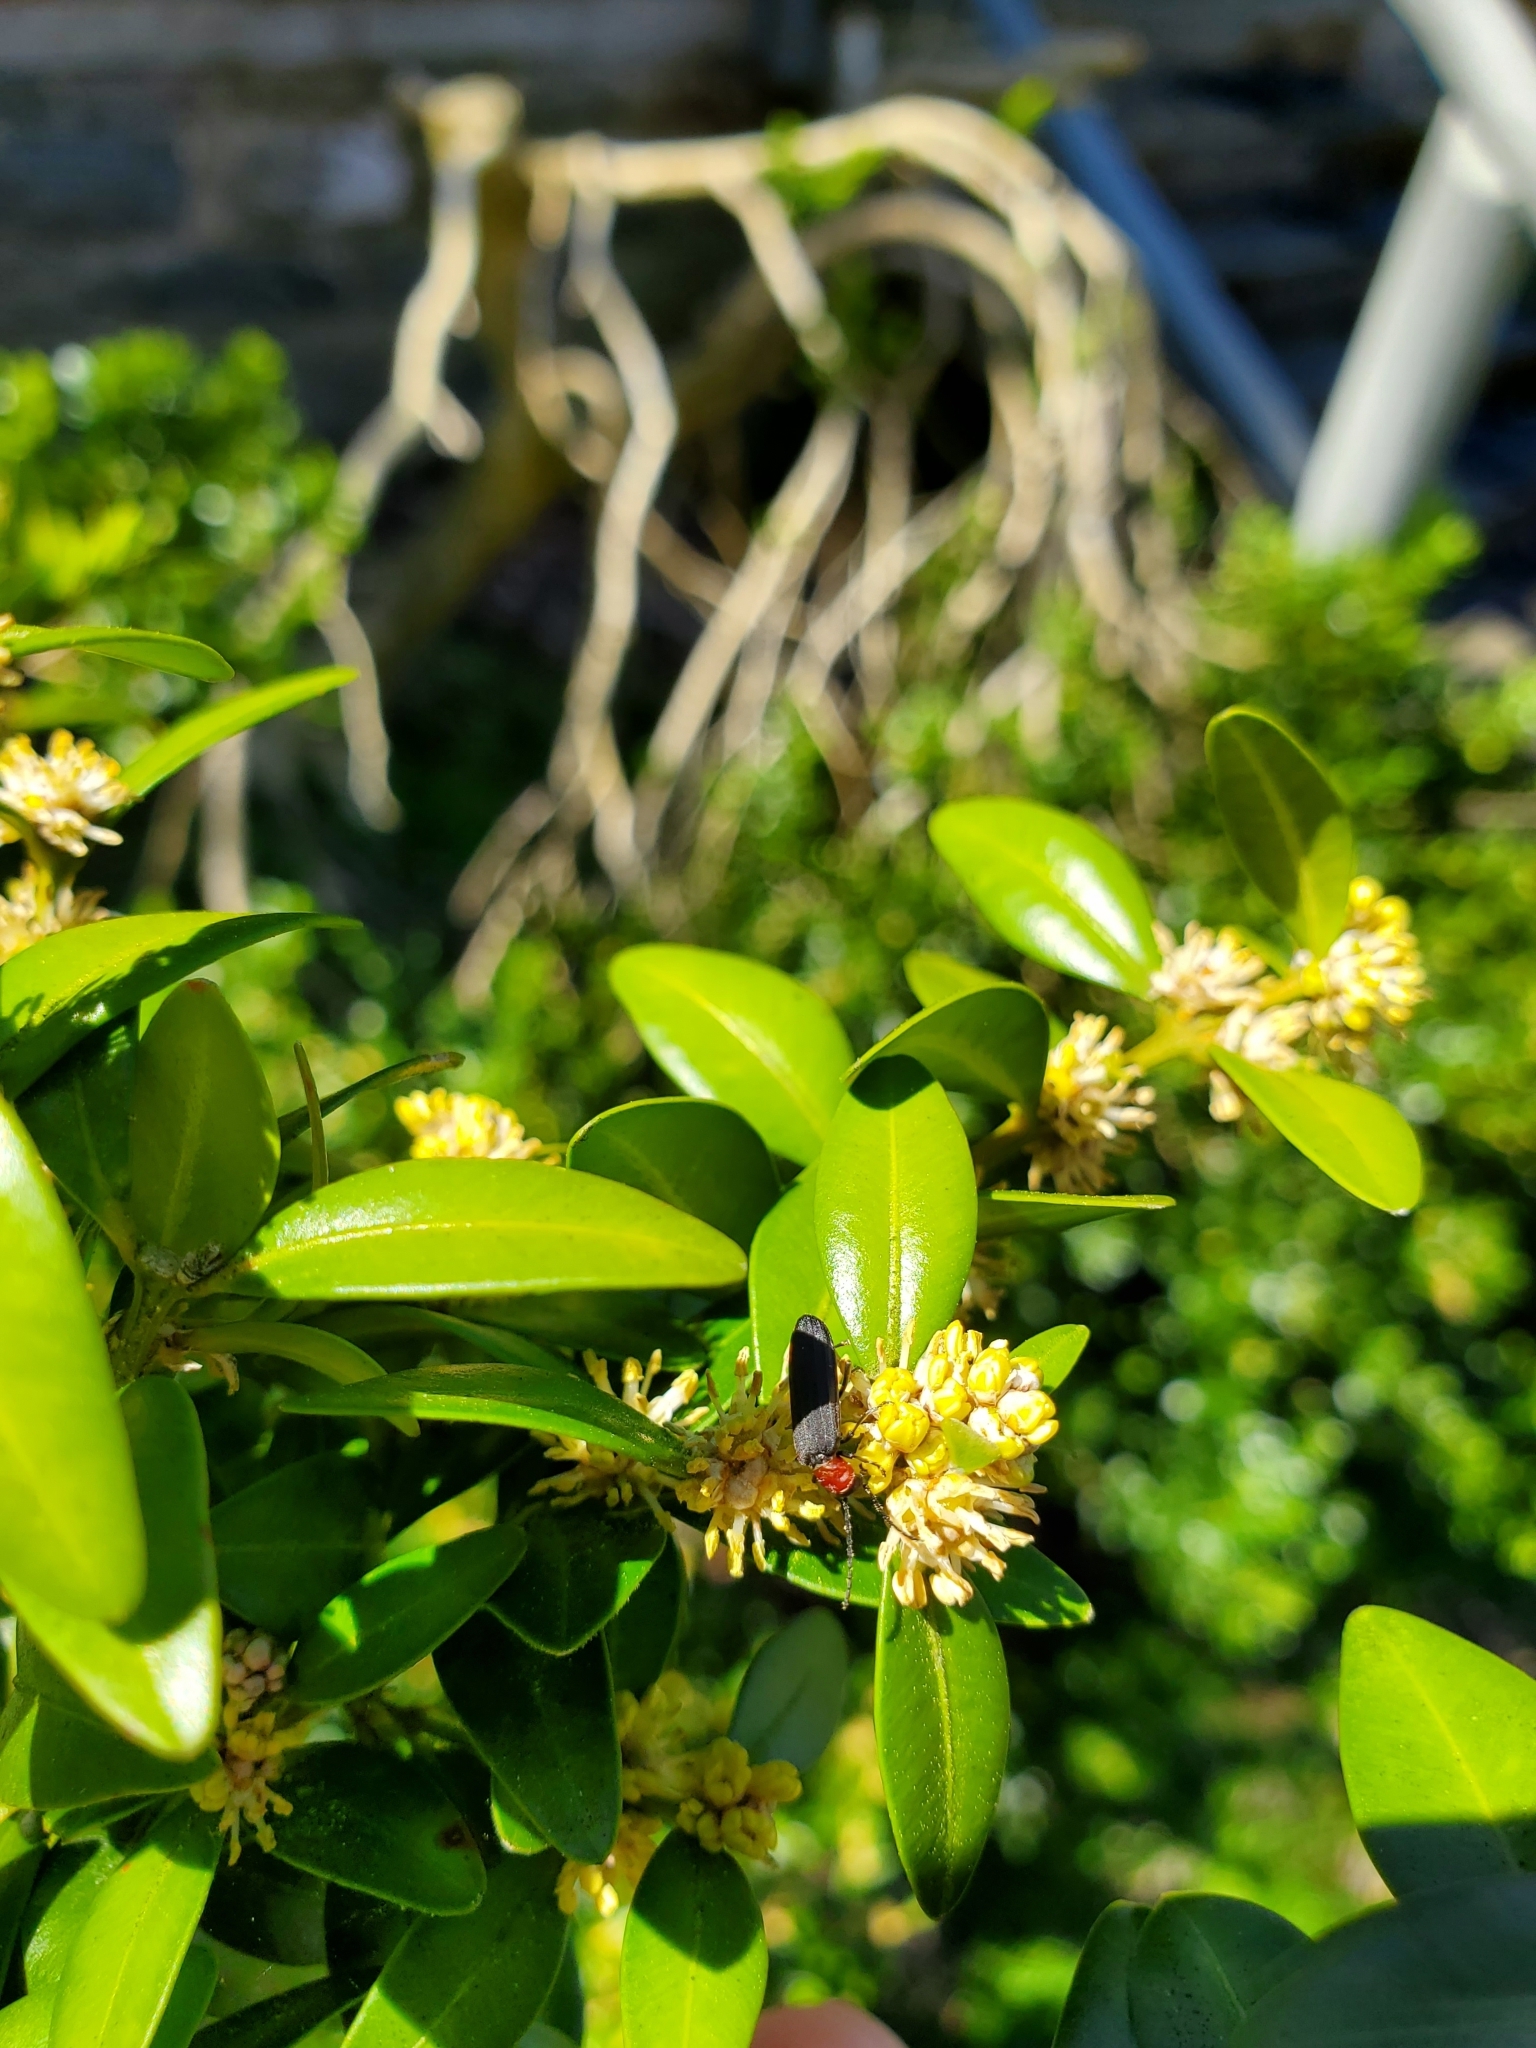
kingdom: Animalia
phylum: Arthropoda
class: Insecta
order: Coleoptera
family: Oedemeridae
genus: Ischnomera
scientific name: Ischnomera
